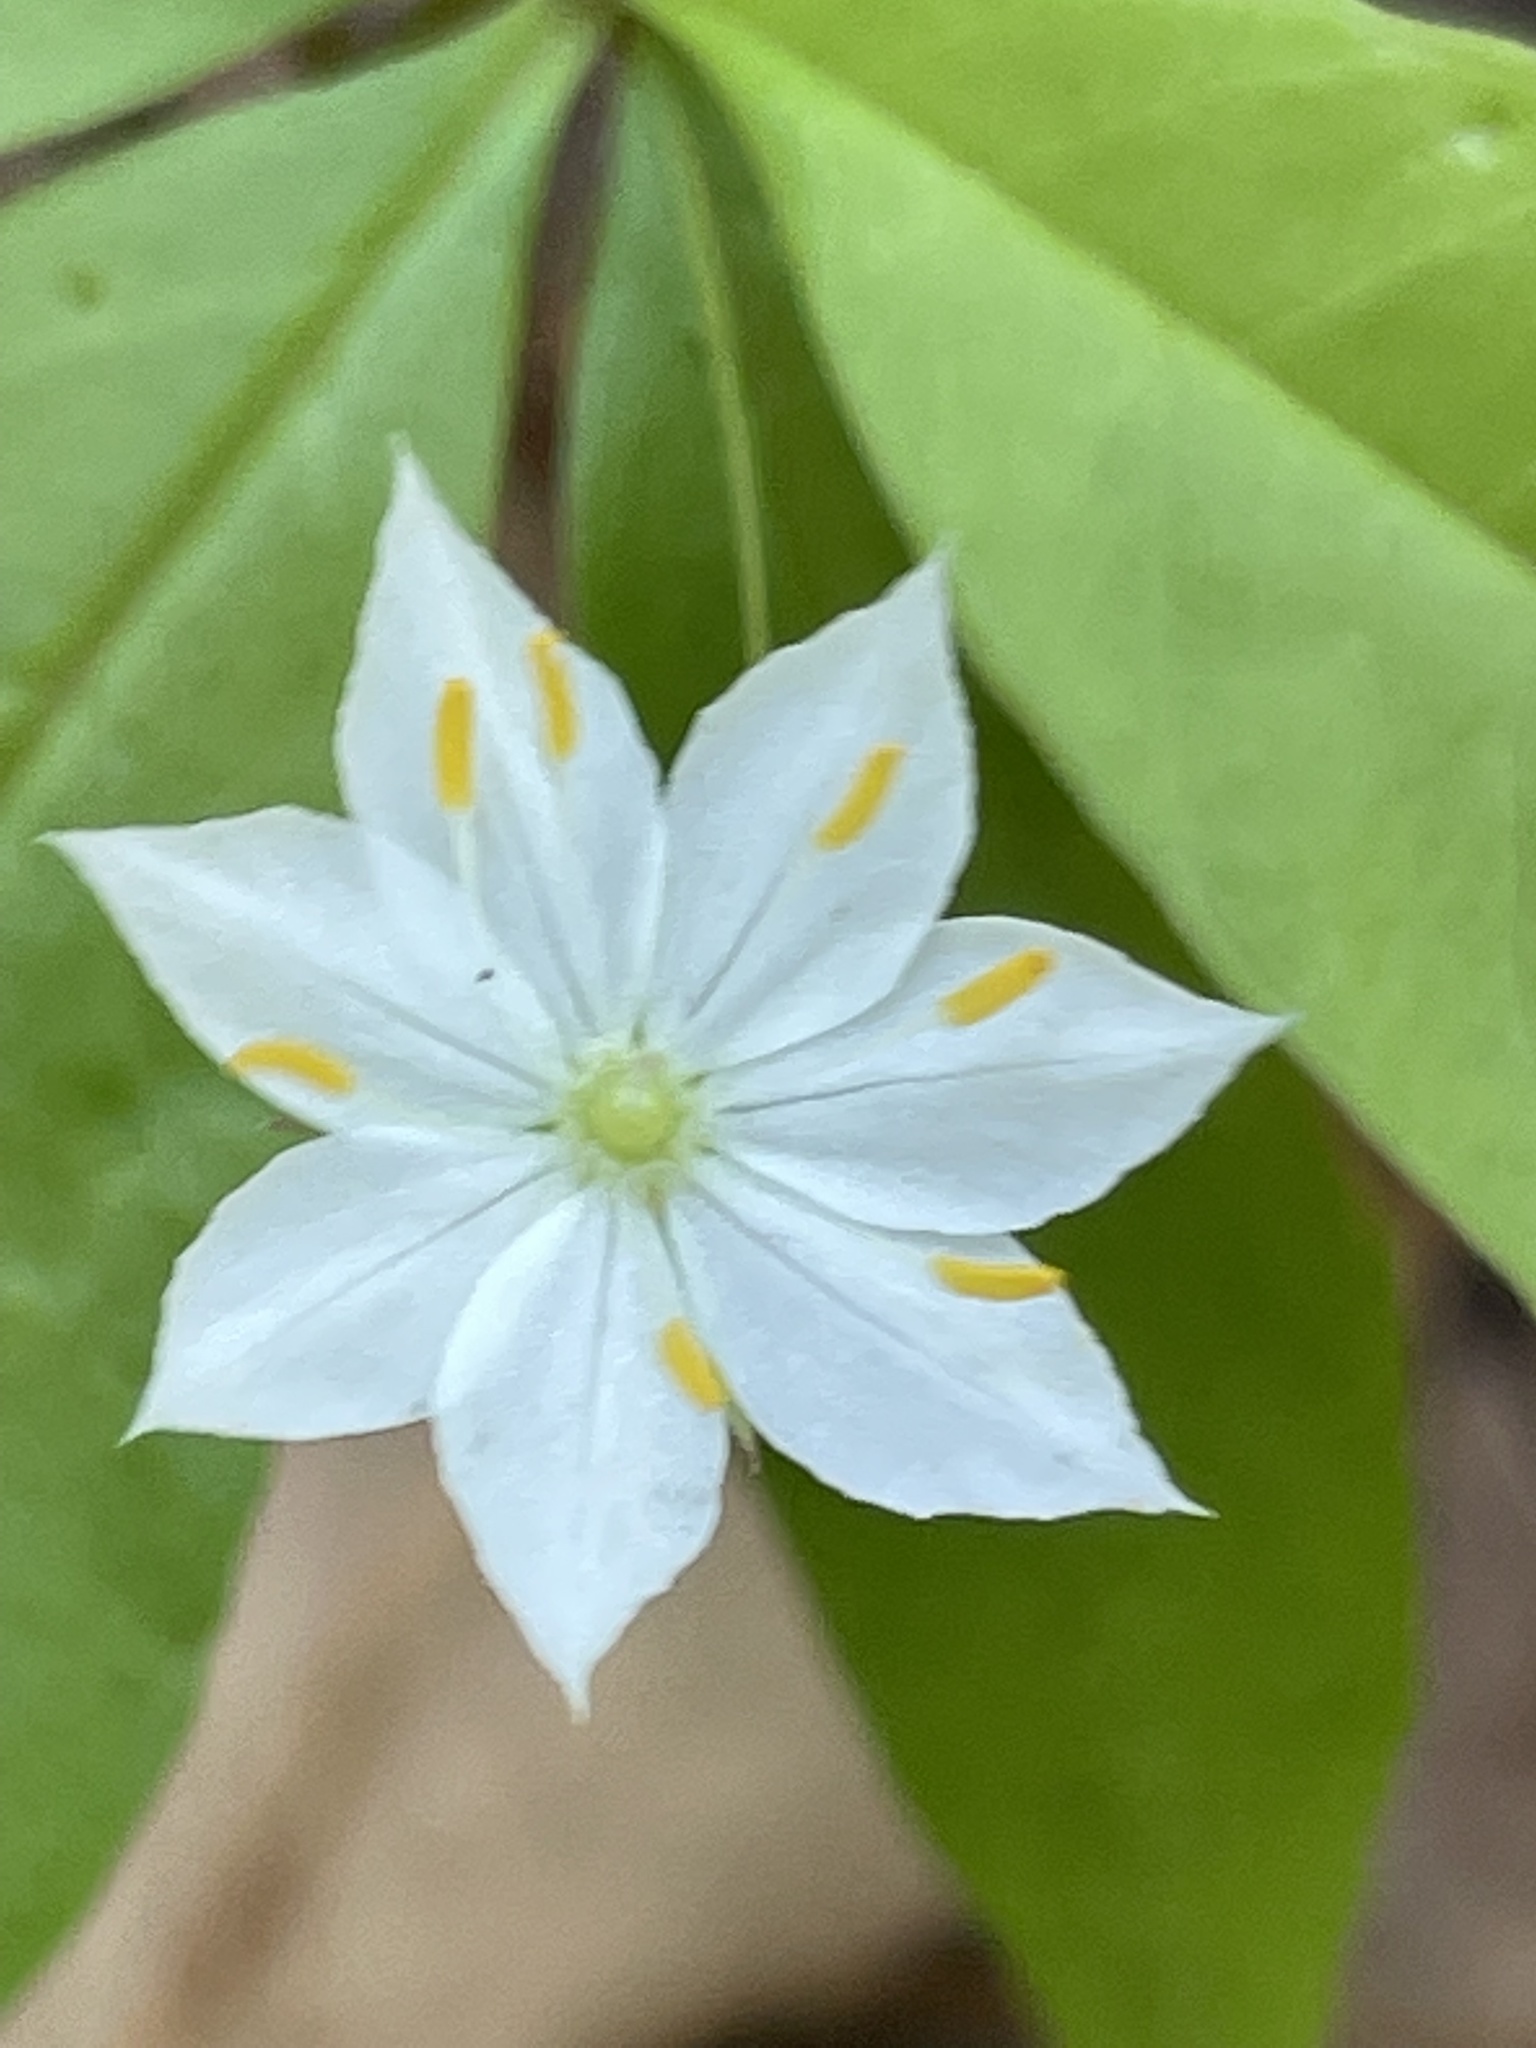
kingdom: Plantae
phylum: Tracheophyta
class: Magnoliopsida
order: Ericales
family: Primulaceae
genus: Lysimachia
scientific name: Lysimachia borealis
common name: American starflower
